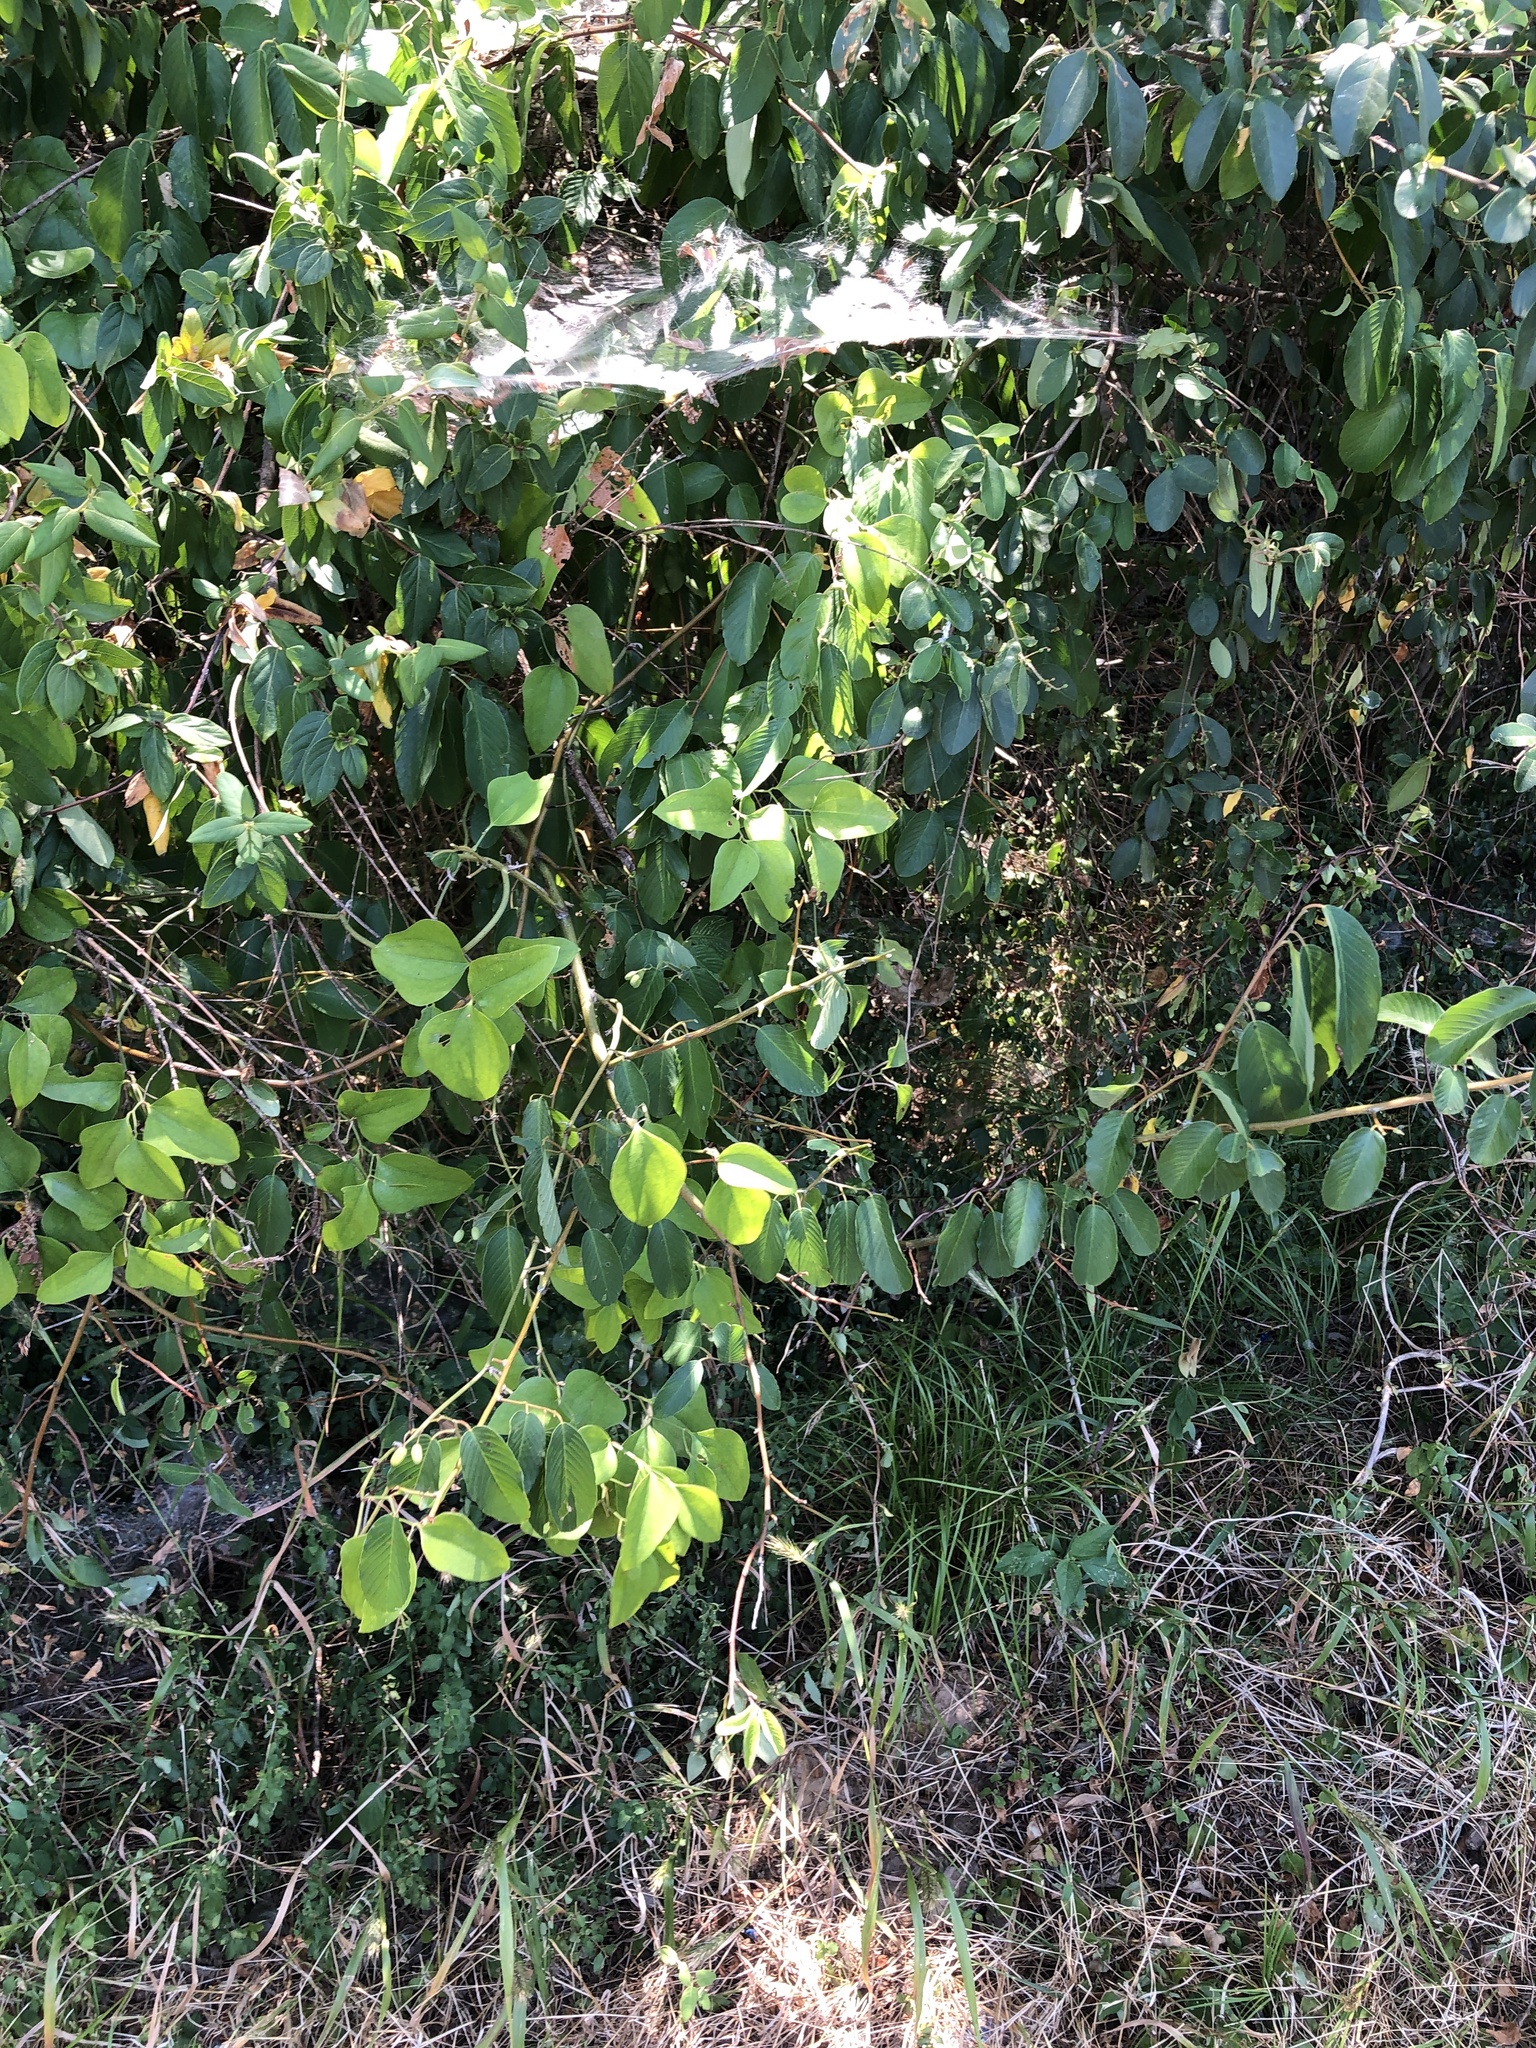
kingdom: Plantae
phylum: Tracheophyta
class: Magnoliopsida
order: Rosales
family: Rhamnaceae
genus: Berchemia
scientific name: Berchemia scandens
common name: Supplejack
